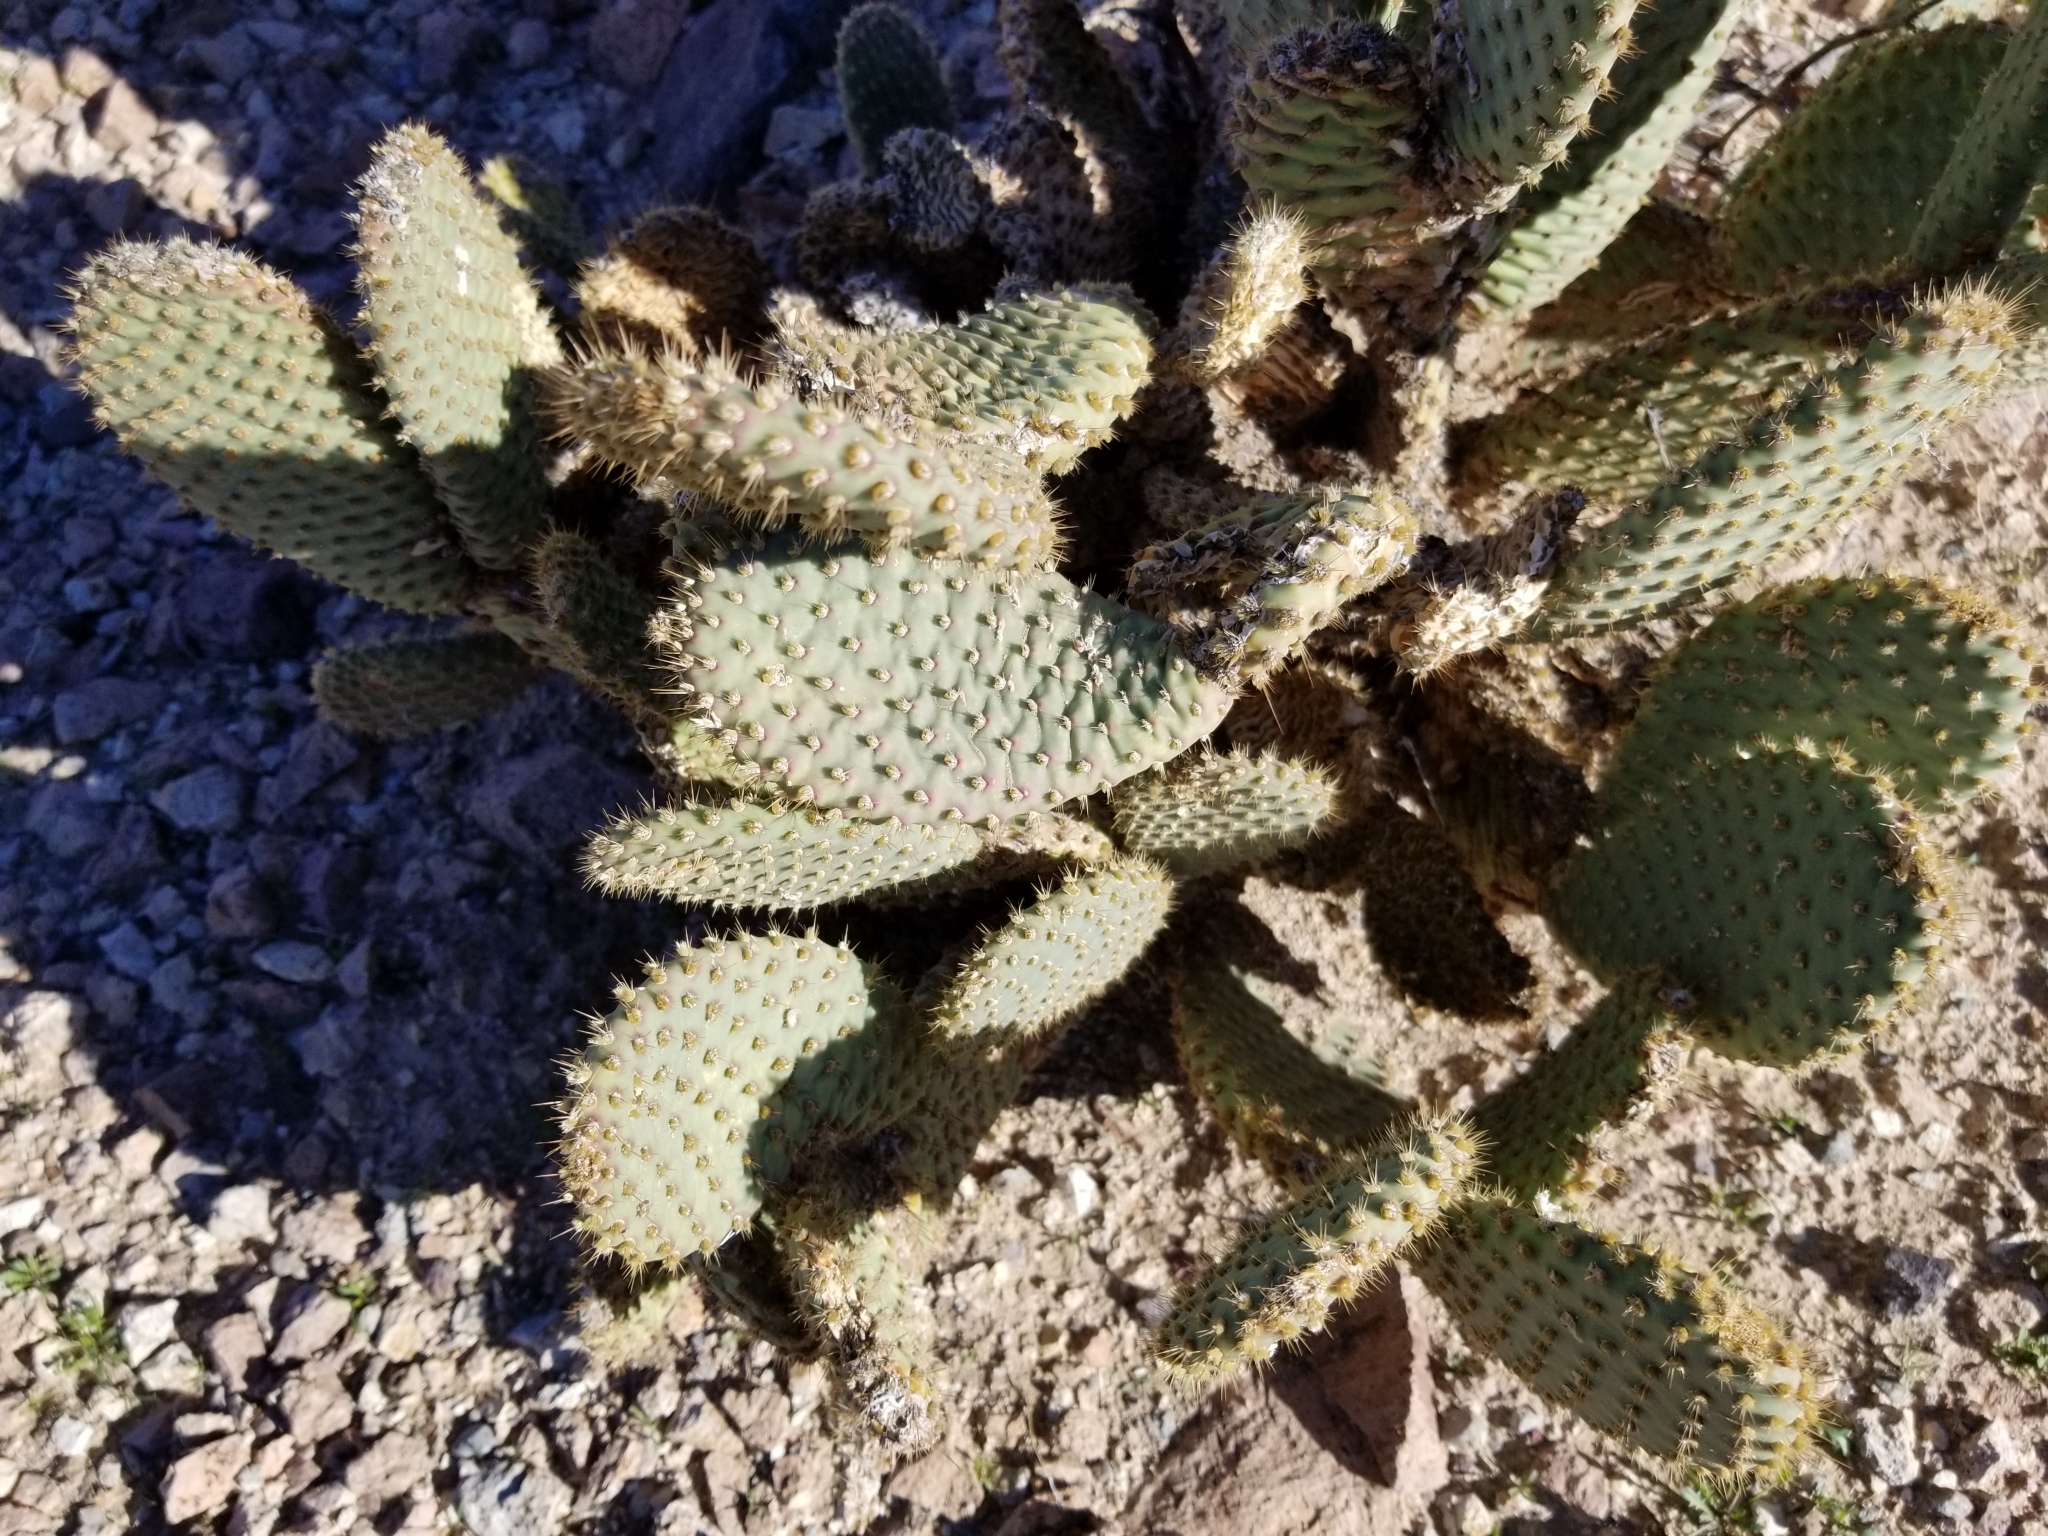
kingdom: Plantae
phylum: Tracheophyta
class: Magnoliopsida
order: Caryophyllales
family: Cactaceae
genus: Opuntia
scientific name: Opuntia basilaris
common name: Beavertail prickly-pear
